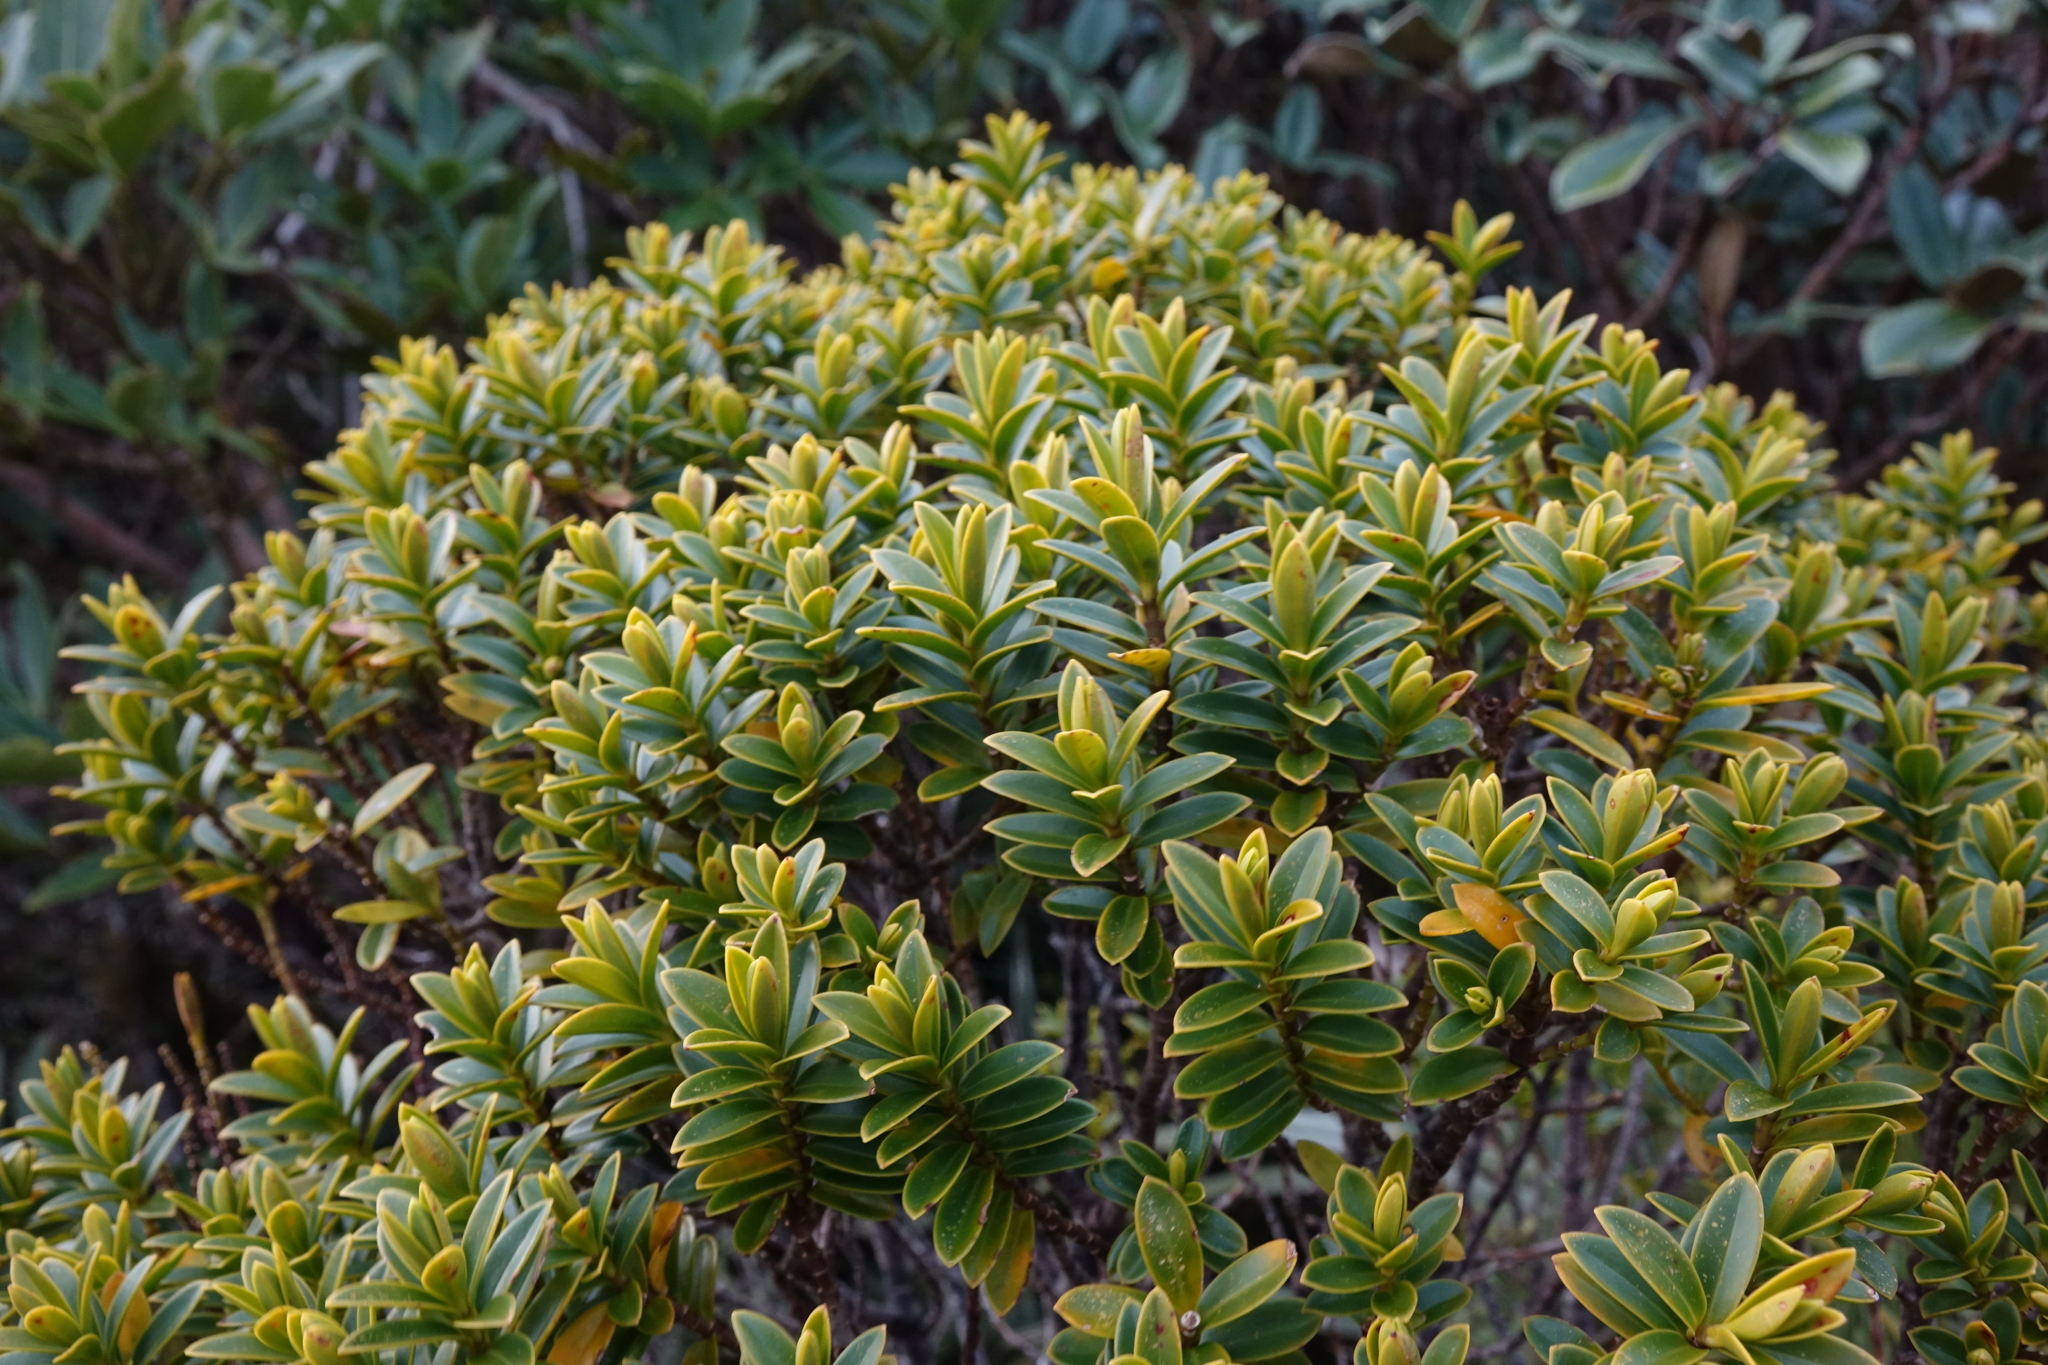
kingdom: Plantae
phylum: Tracheophyta
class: Magnoliopsida
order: Lamiales
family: Plantaginaceae
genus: Veronica
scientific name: Veronica venustula
